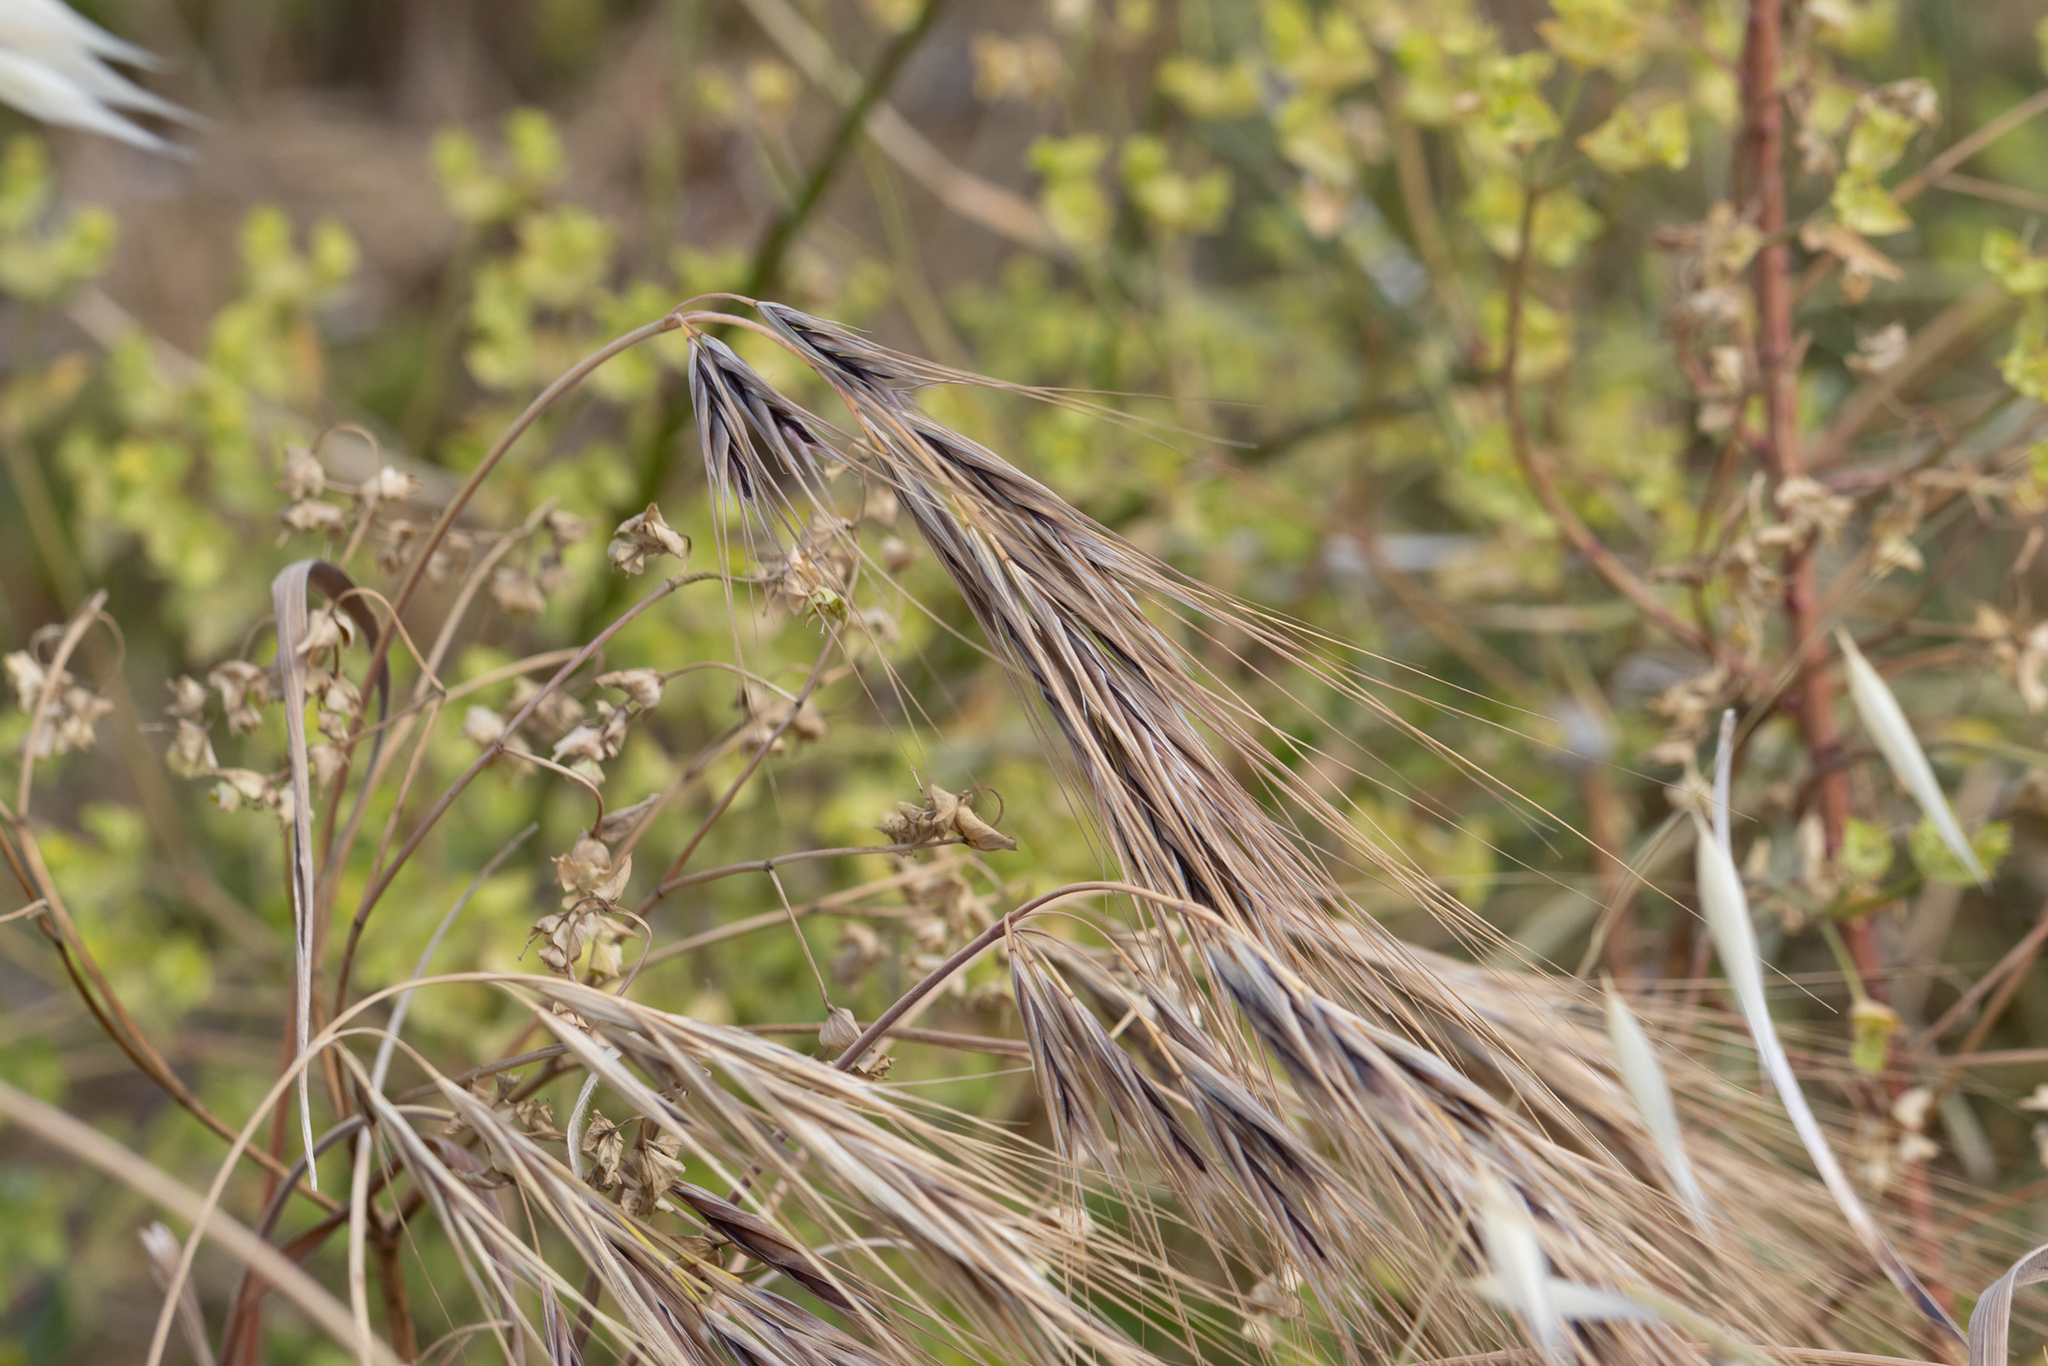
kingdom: Plantae
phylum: Tracheophyta
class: Liliopsida
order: Poales
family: Poaceae
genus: Bromus
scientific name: Bromus diandrus
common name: Ripgut brome
